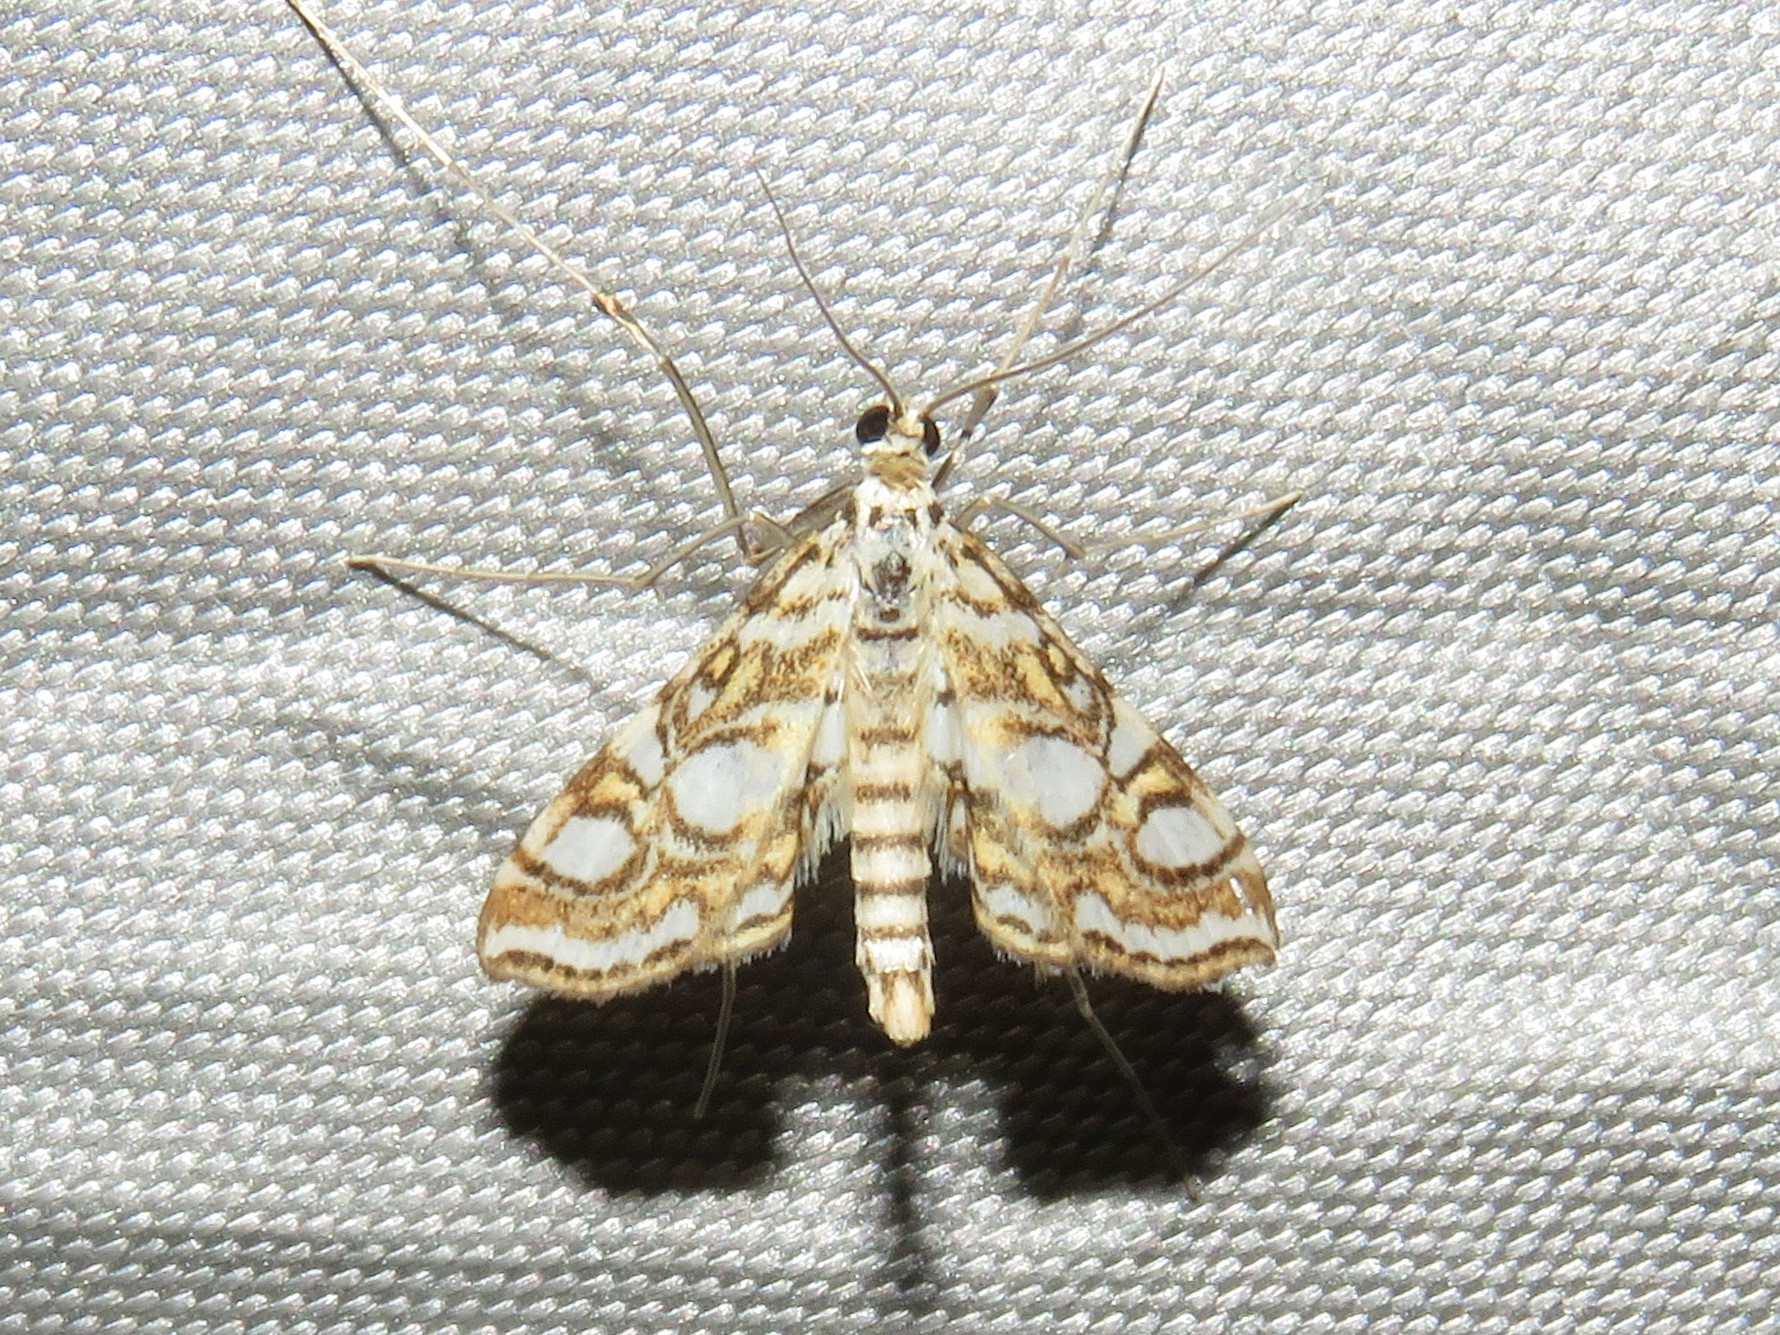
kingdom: Animalia
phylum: Arthropoda
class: Insecta
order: Lepidoptera
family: Crambidae
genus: Elophila
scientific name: Elophila ekthlipsis
